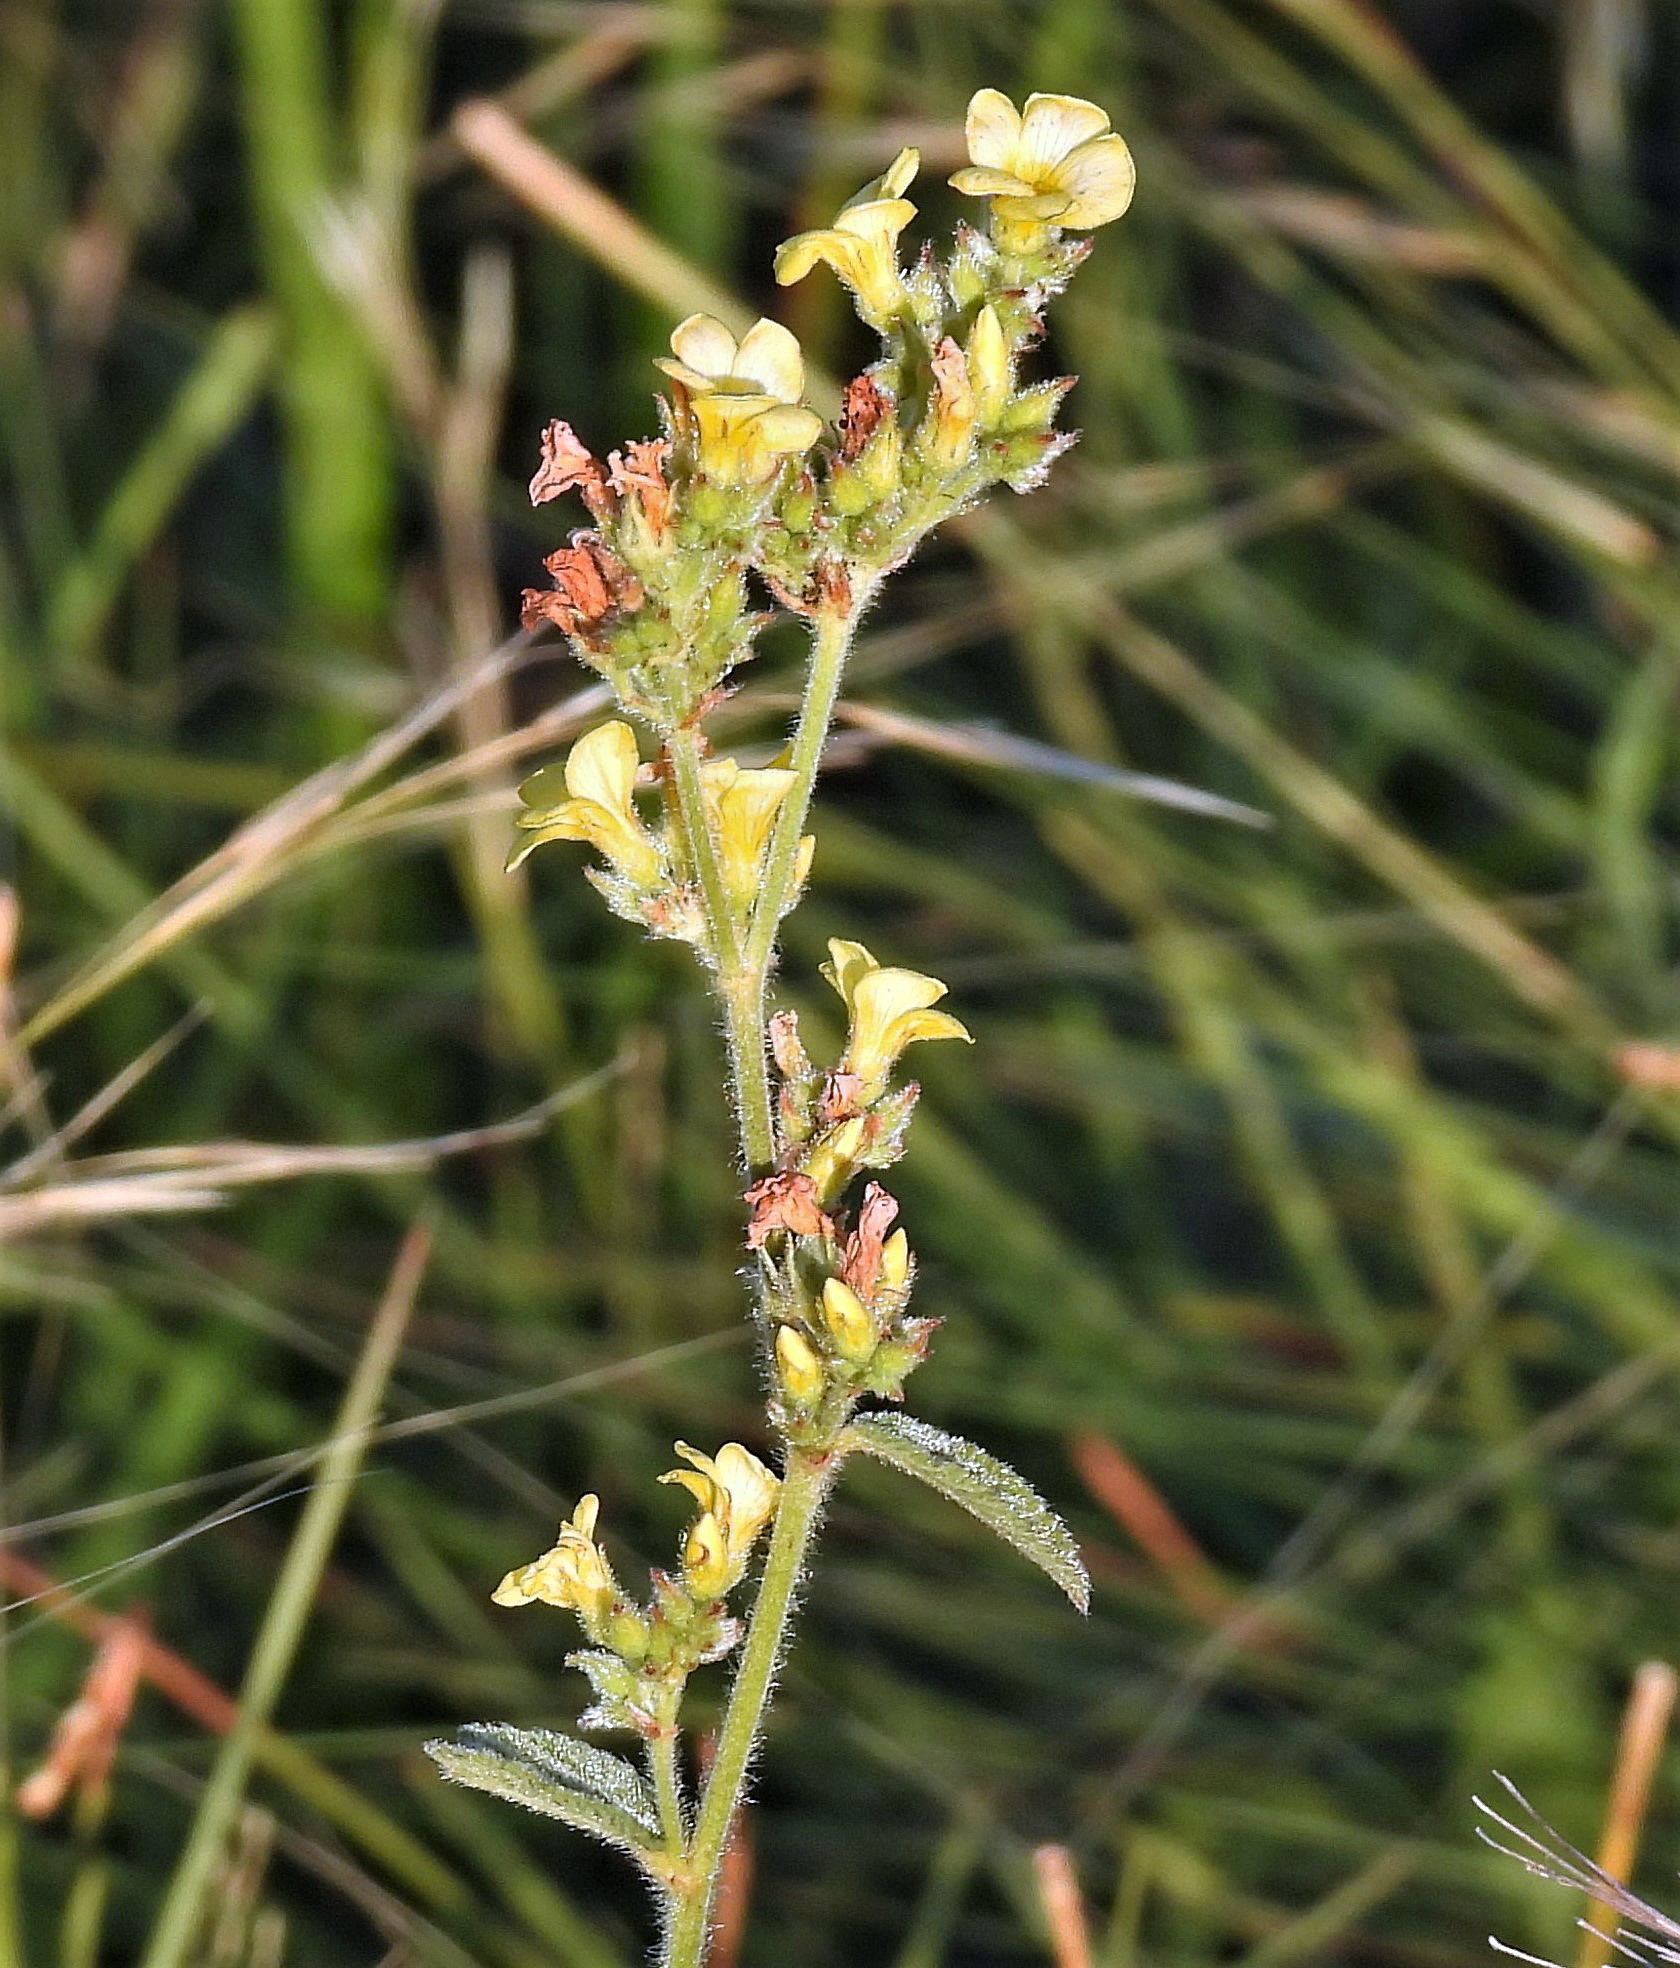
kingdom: Plantae
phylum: Tracheophyta
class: Magnoliopsida
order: Malvales
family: Malvaceae
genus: Melochia
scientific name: Melochia pilosa
